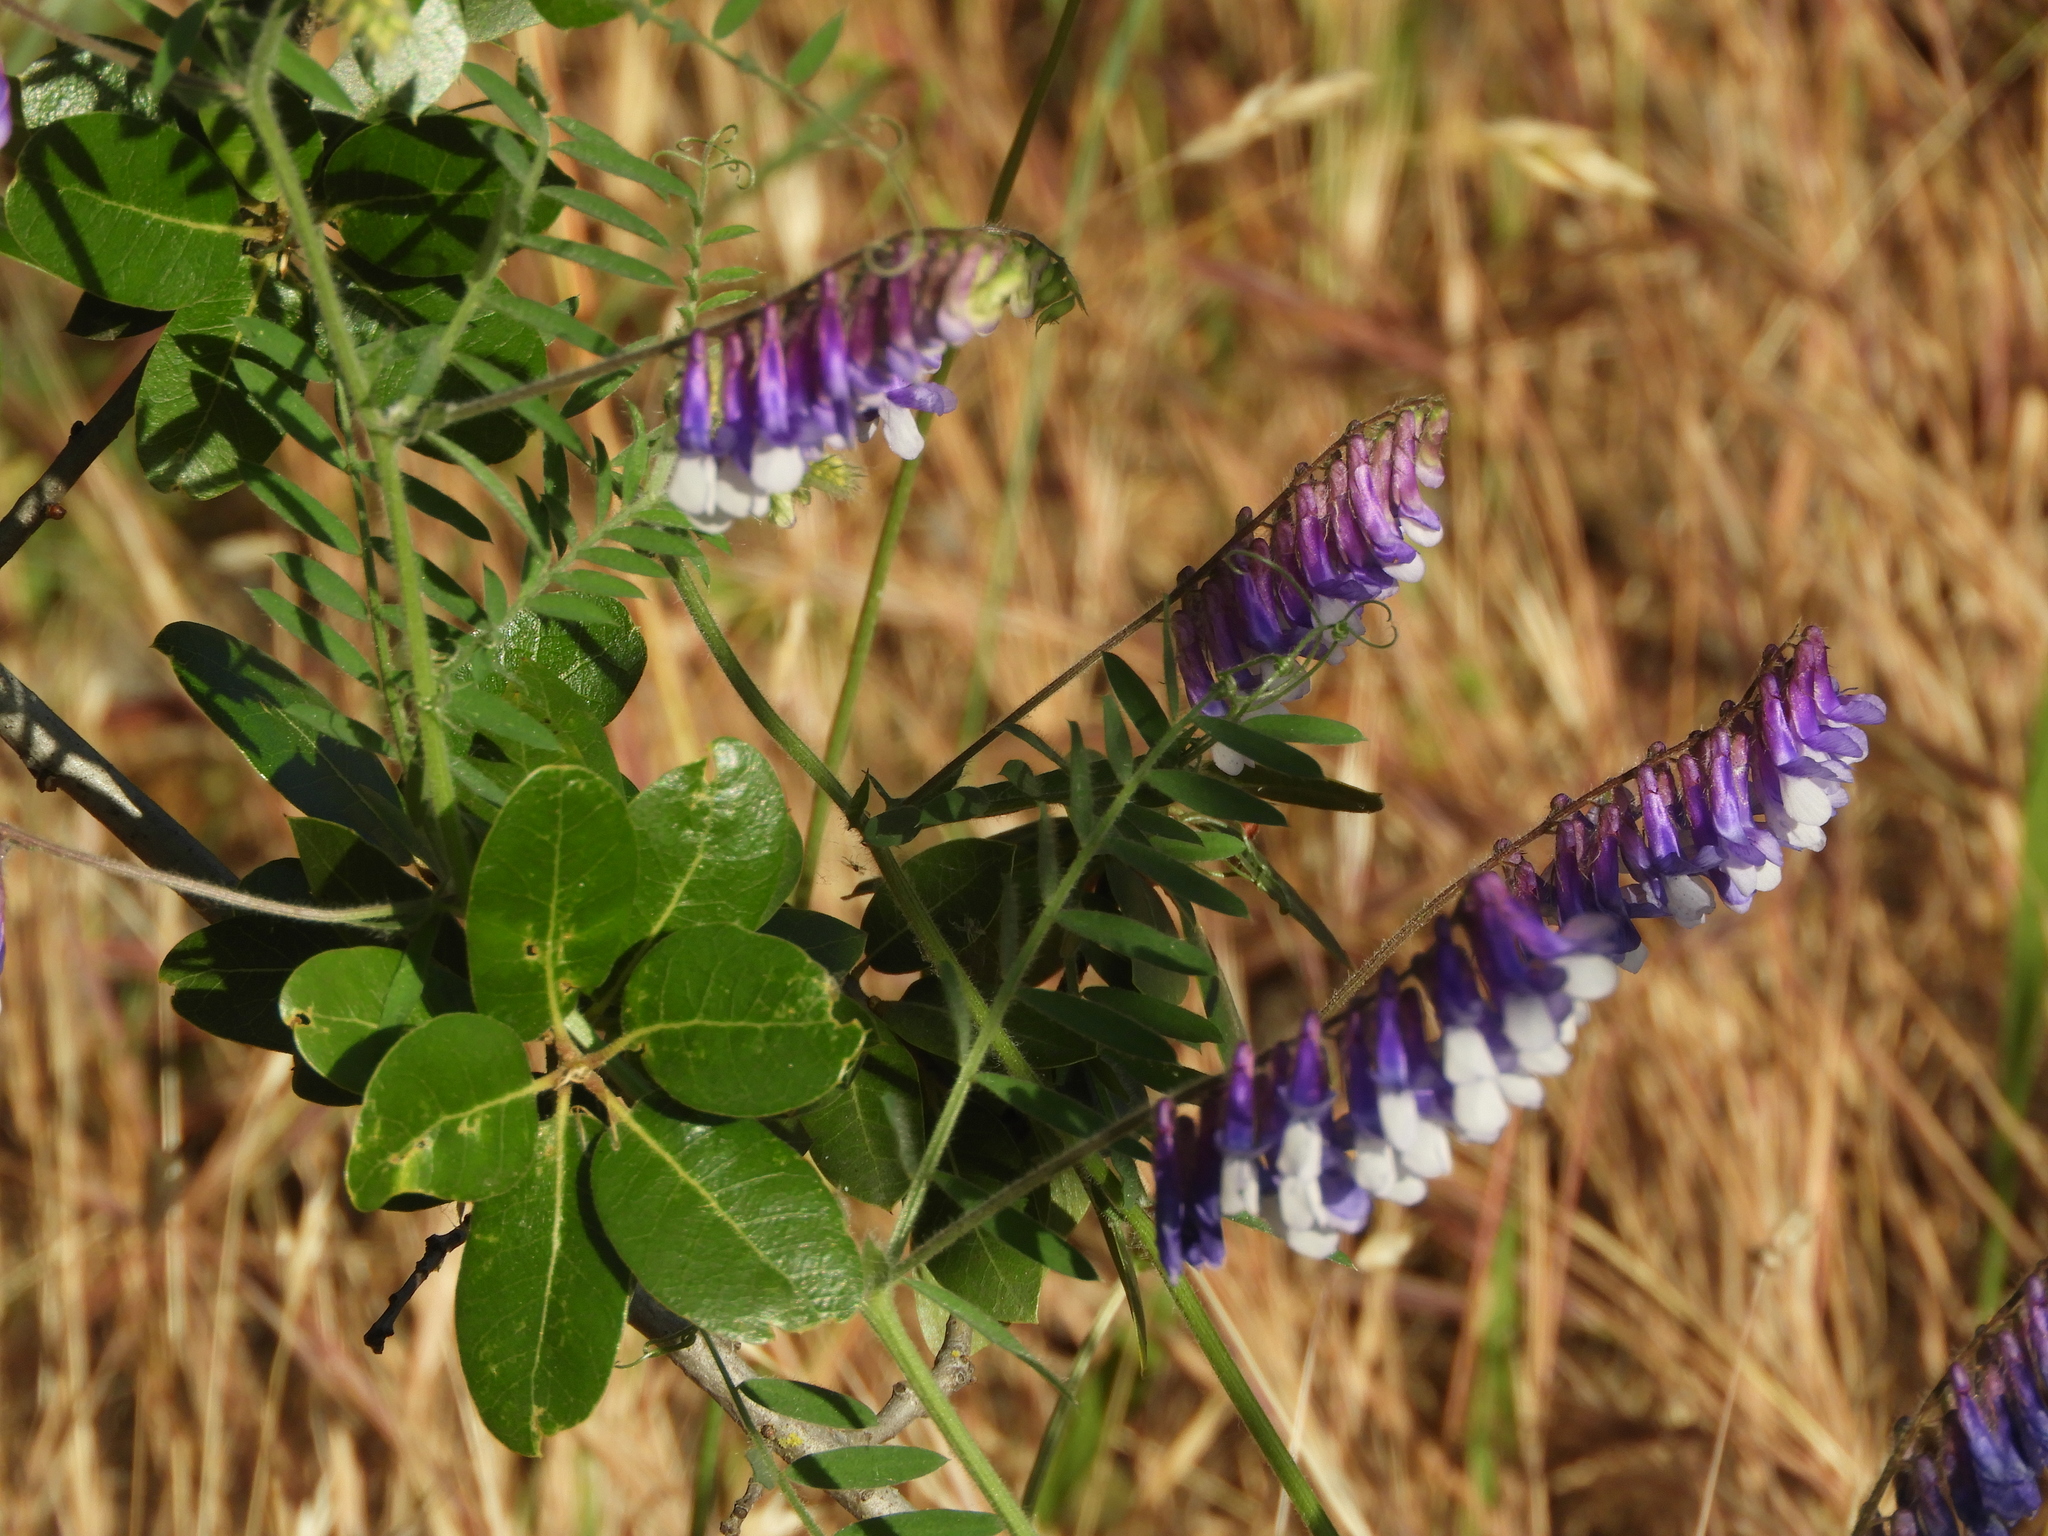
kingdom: Plantae
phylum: Tracheophyta
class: Magnoliopsida
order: Fabales
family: Fabaceae
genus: Vicia
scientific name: Vicia villosa
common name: Fodder vetch
